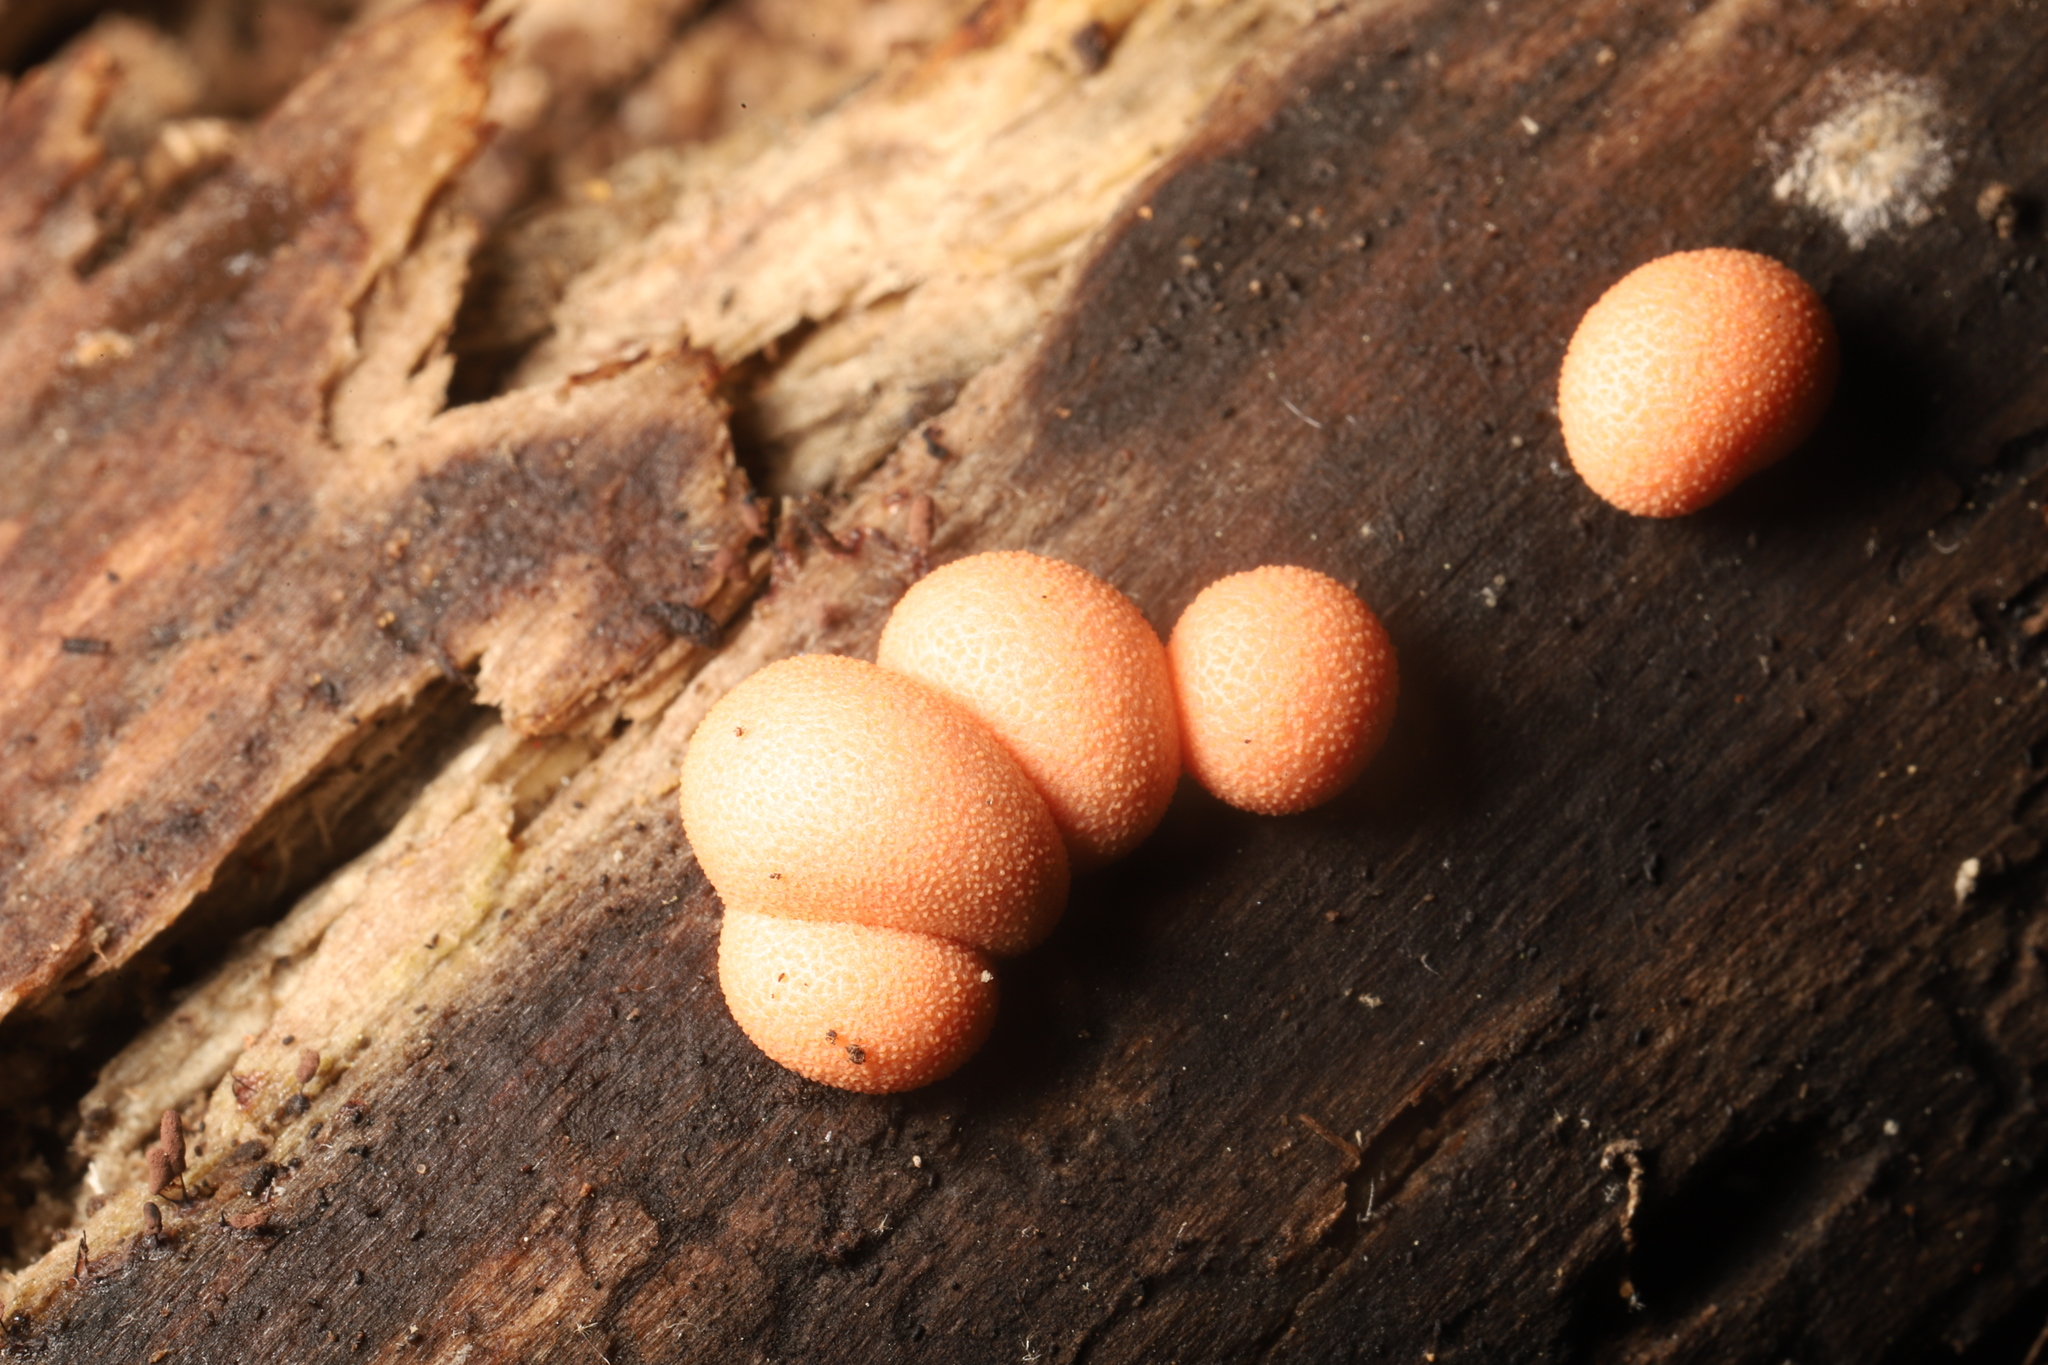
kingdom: Protozoa
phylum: Mycetozoa
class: Myxomycetes
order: Cribrariales
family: Tubiferaceae
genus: Lycogala
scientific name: Lycogala epidendrum
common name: Wolf's milk
